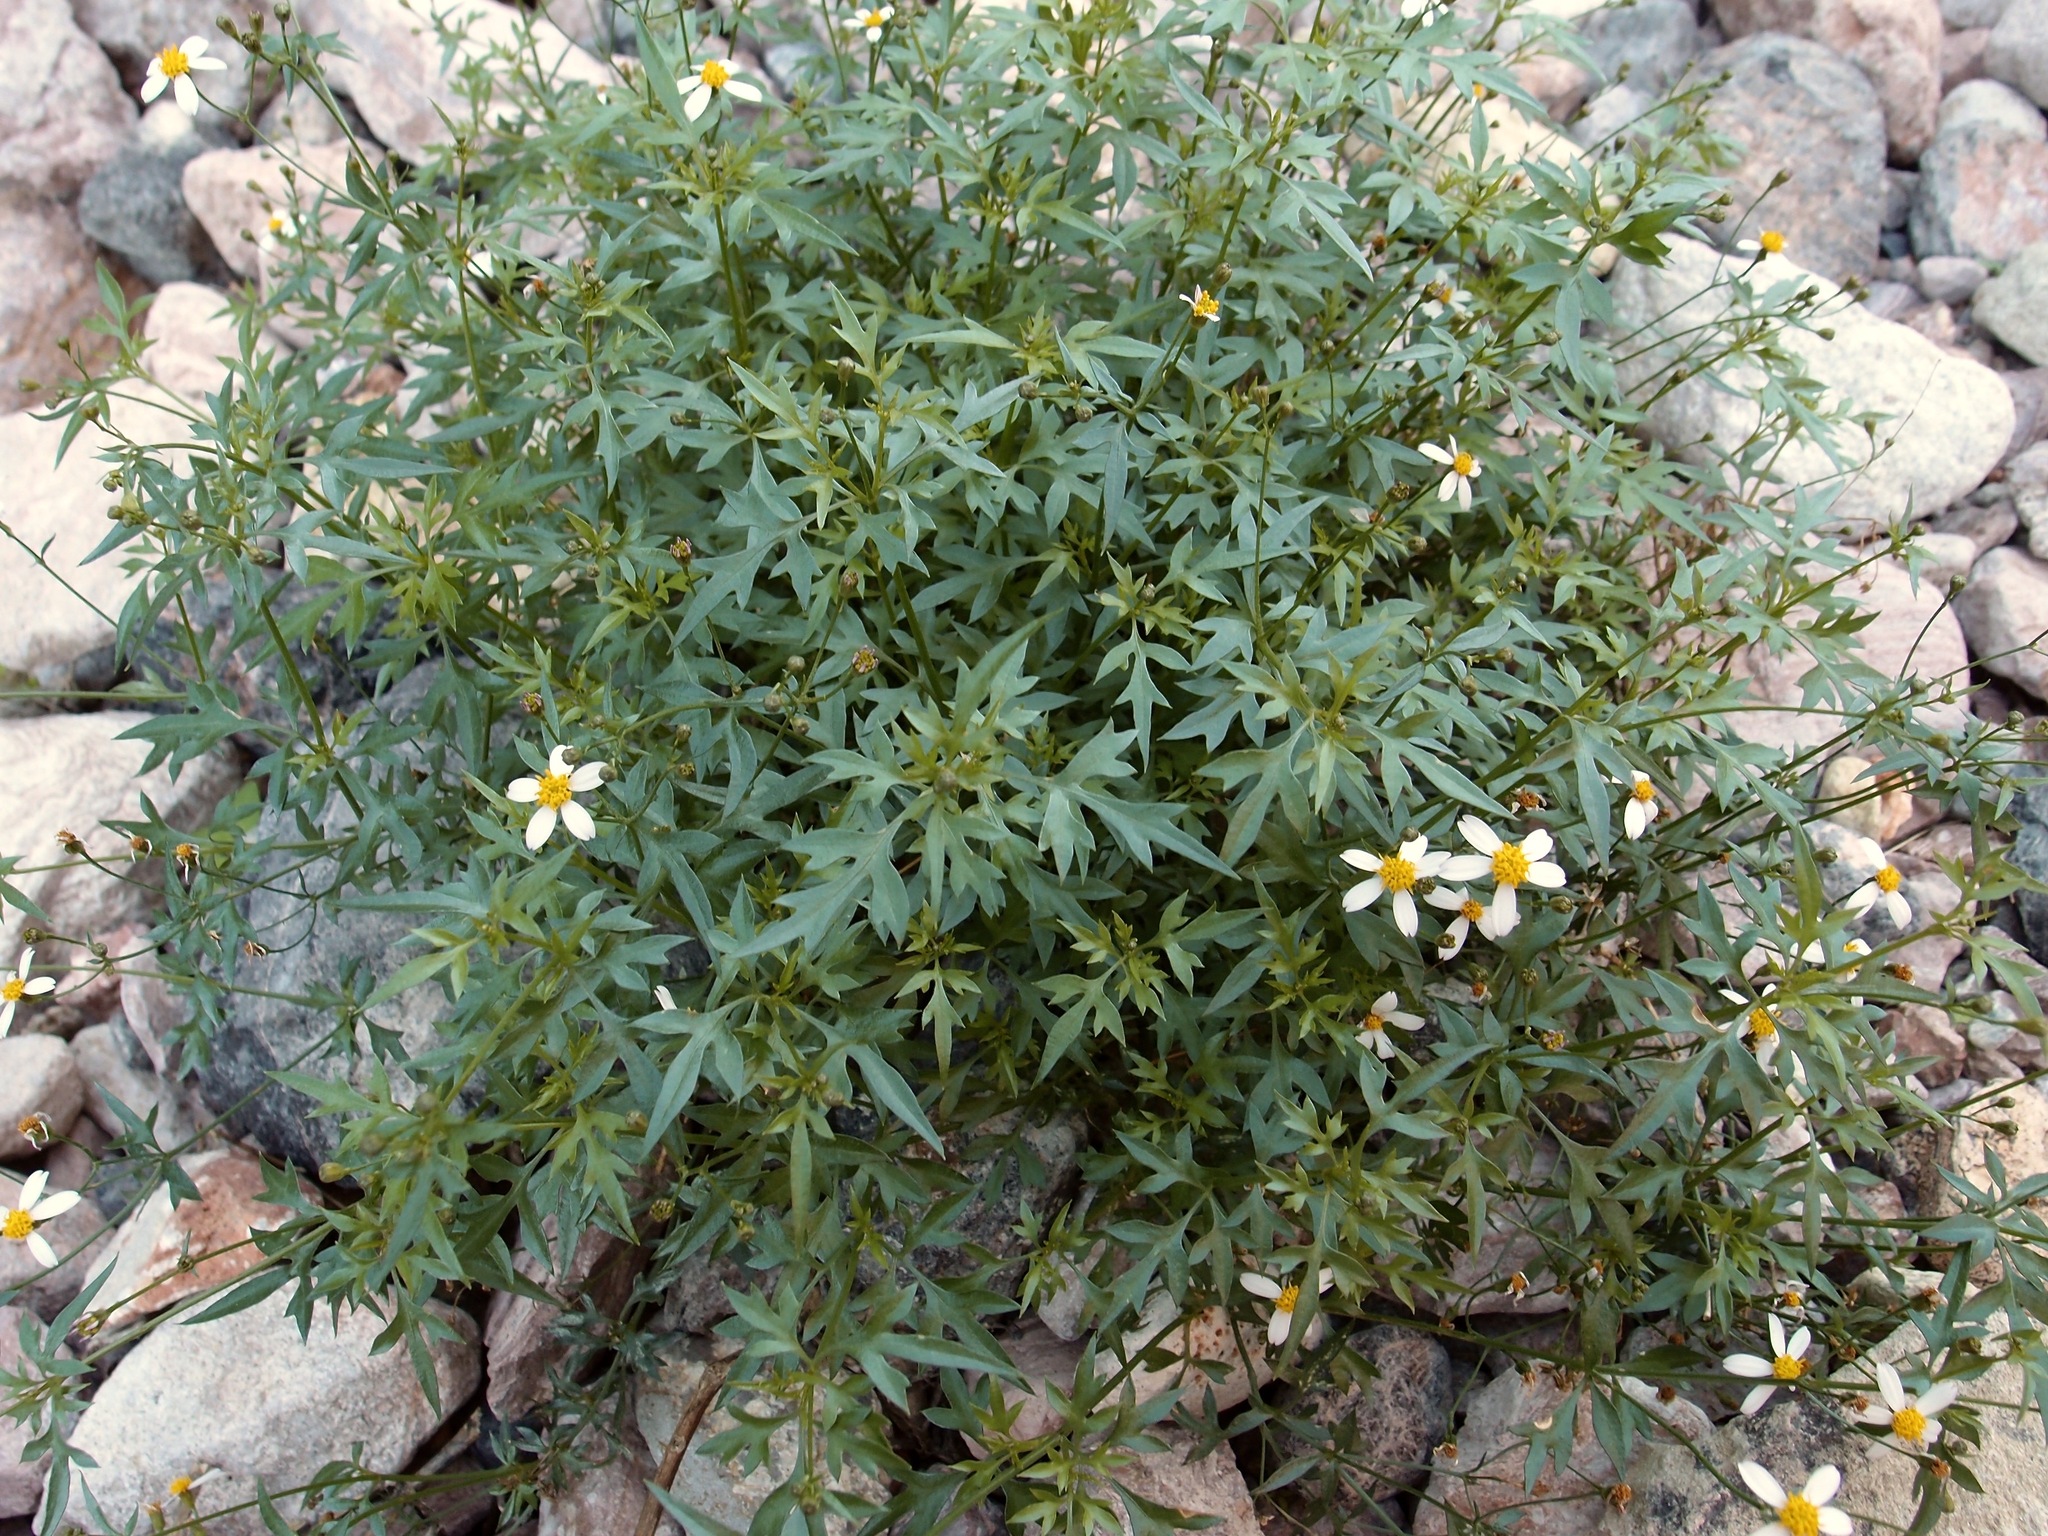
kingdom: Plantae
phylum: Tracheophyta
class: Magnoliopsida
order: Asterales
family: Asteraceae
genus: Coreocarpus
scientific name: Coreocarpus sonoranus
